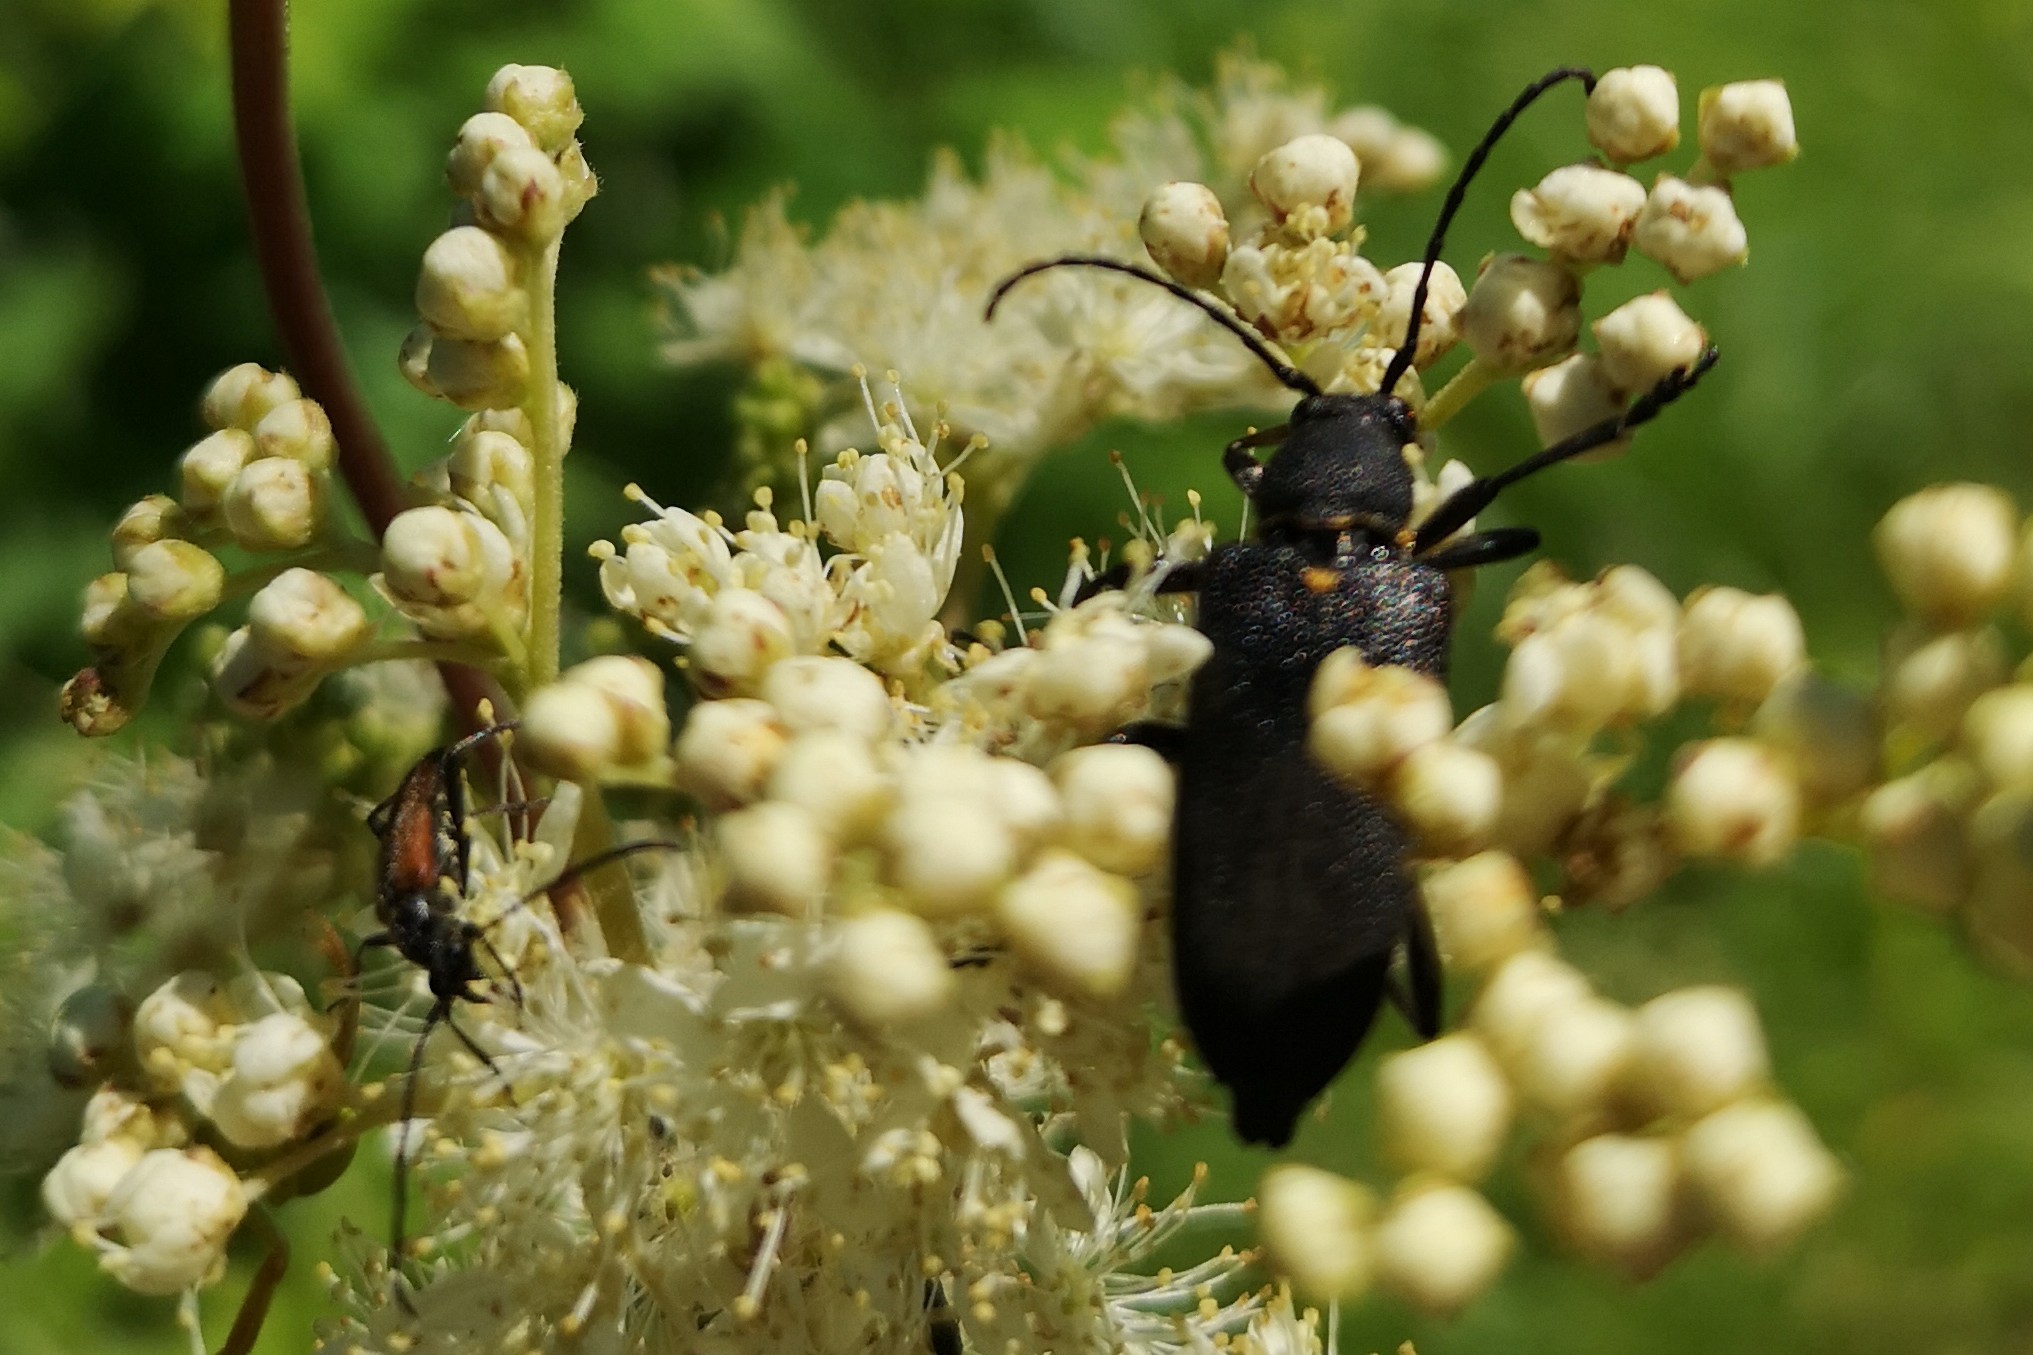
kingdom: Animalia
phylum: Arthropoda
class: Insecta
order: Coleoptera
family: Cerambycidae
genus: Stictoleptura
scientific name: Stictoleptura scutellata
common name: Large black longhorn beetle
